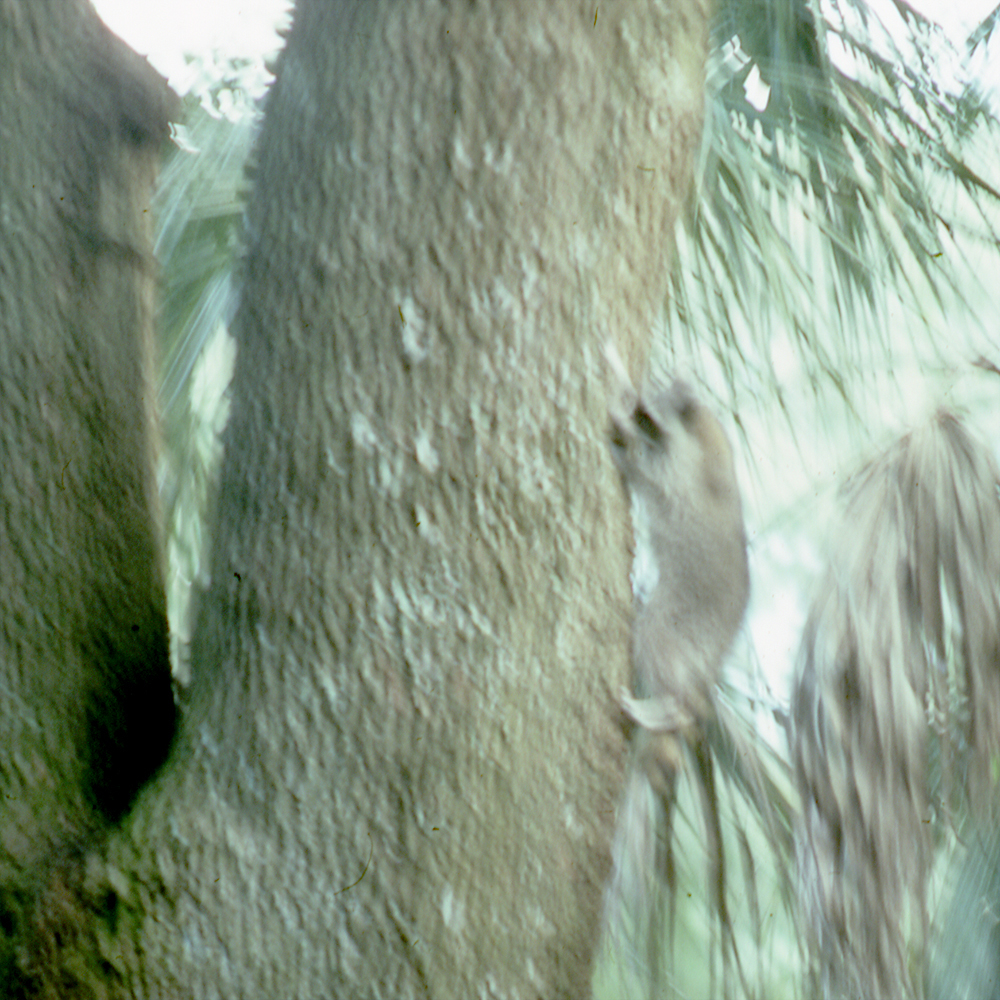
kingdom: Animalia
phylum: Chordata
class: Mammalia
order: Carnivora
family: Procyonidae
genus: Procyon
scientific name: Procyon lotor
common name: Raccoon
